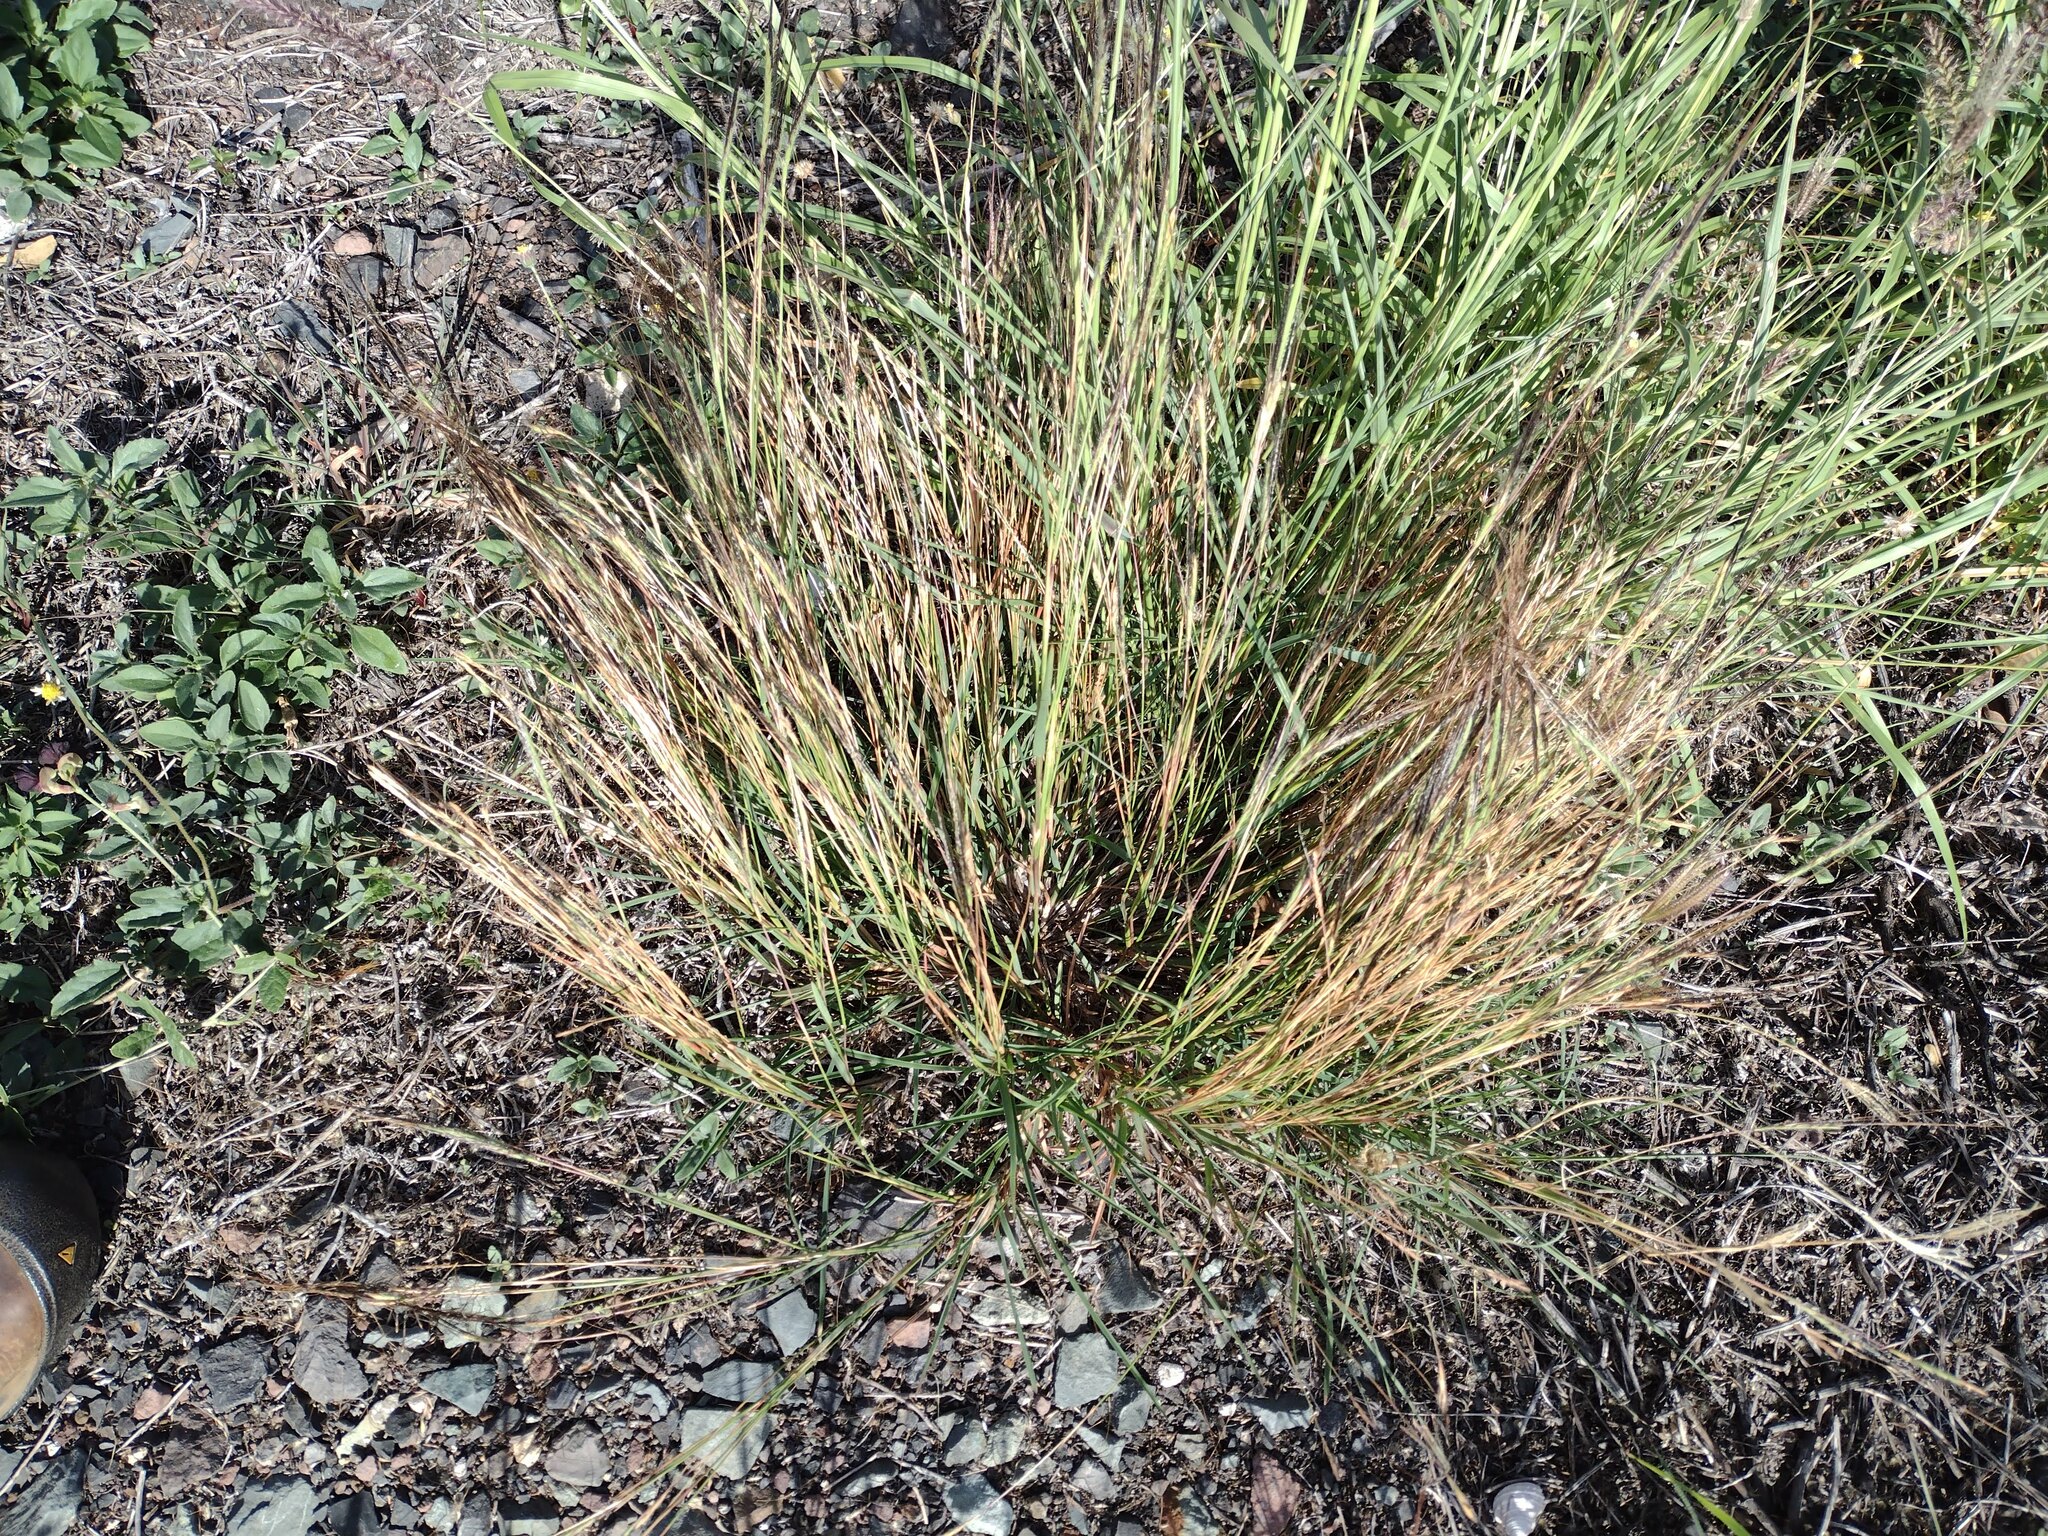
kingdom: Plantae
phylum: Tracheophyta
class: Liliopsida
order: Poales
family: Poaceae
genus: Heteropogon
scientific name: Heteropogon contortus
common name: Tanglehead
